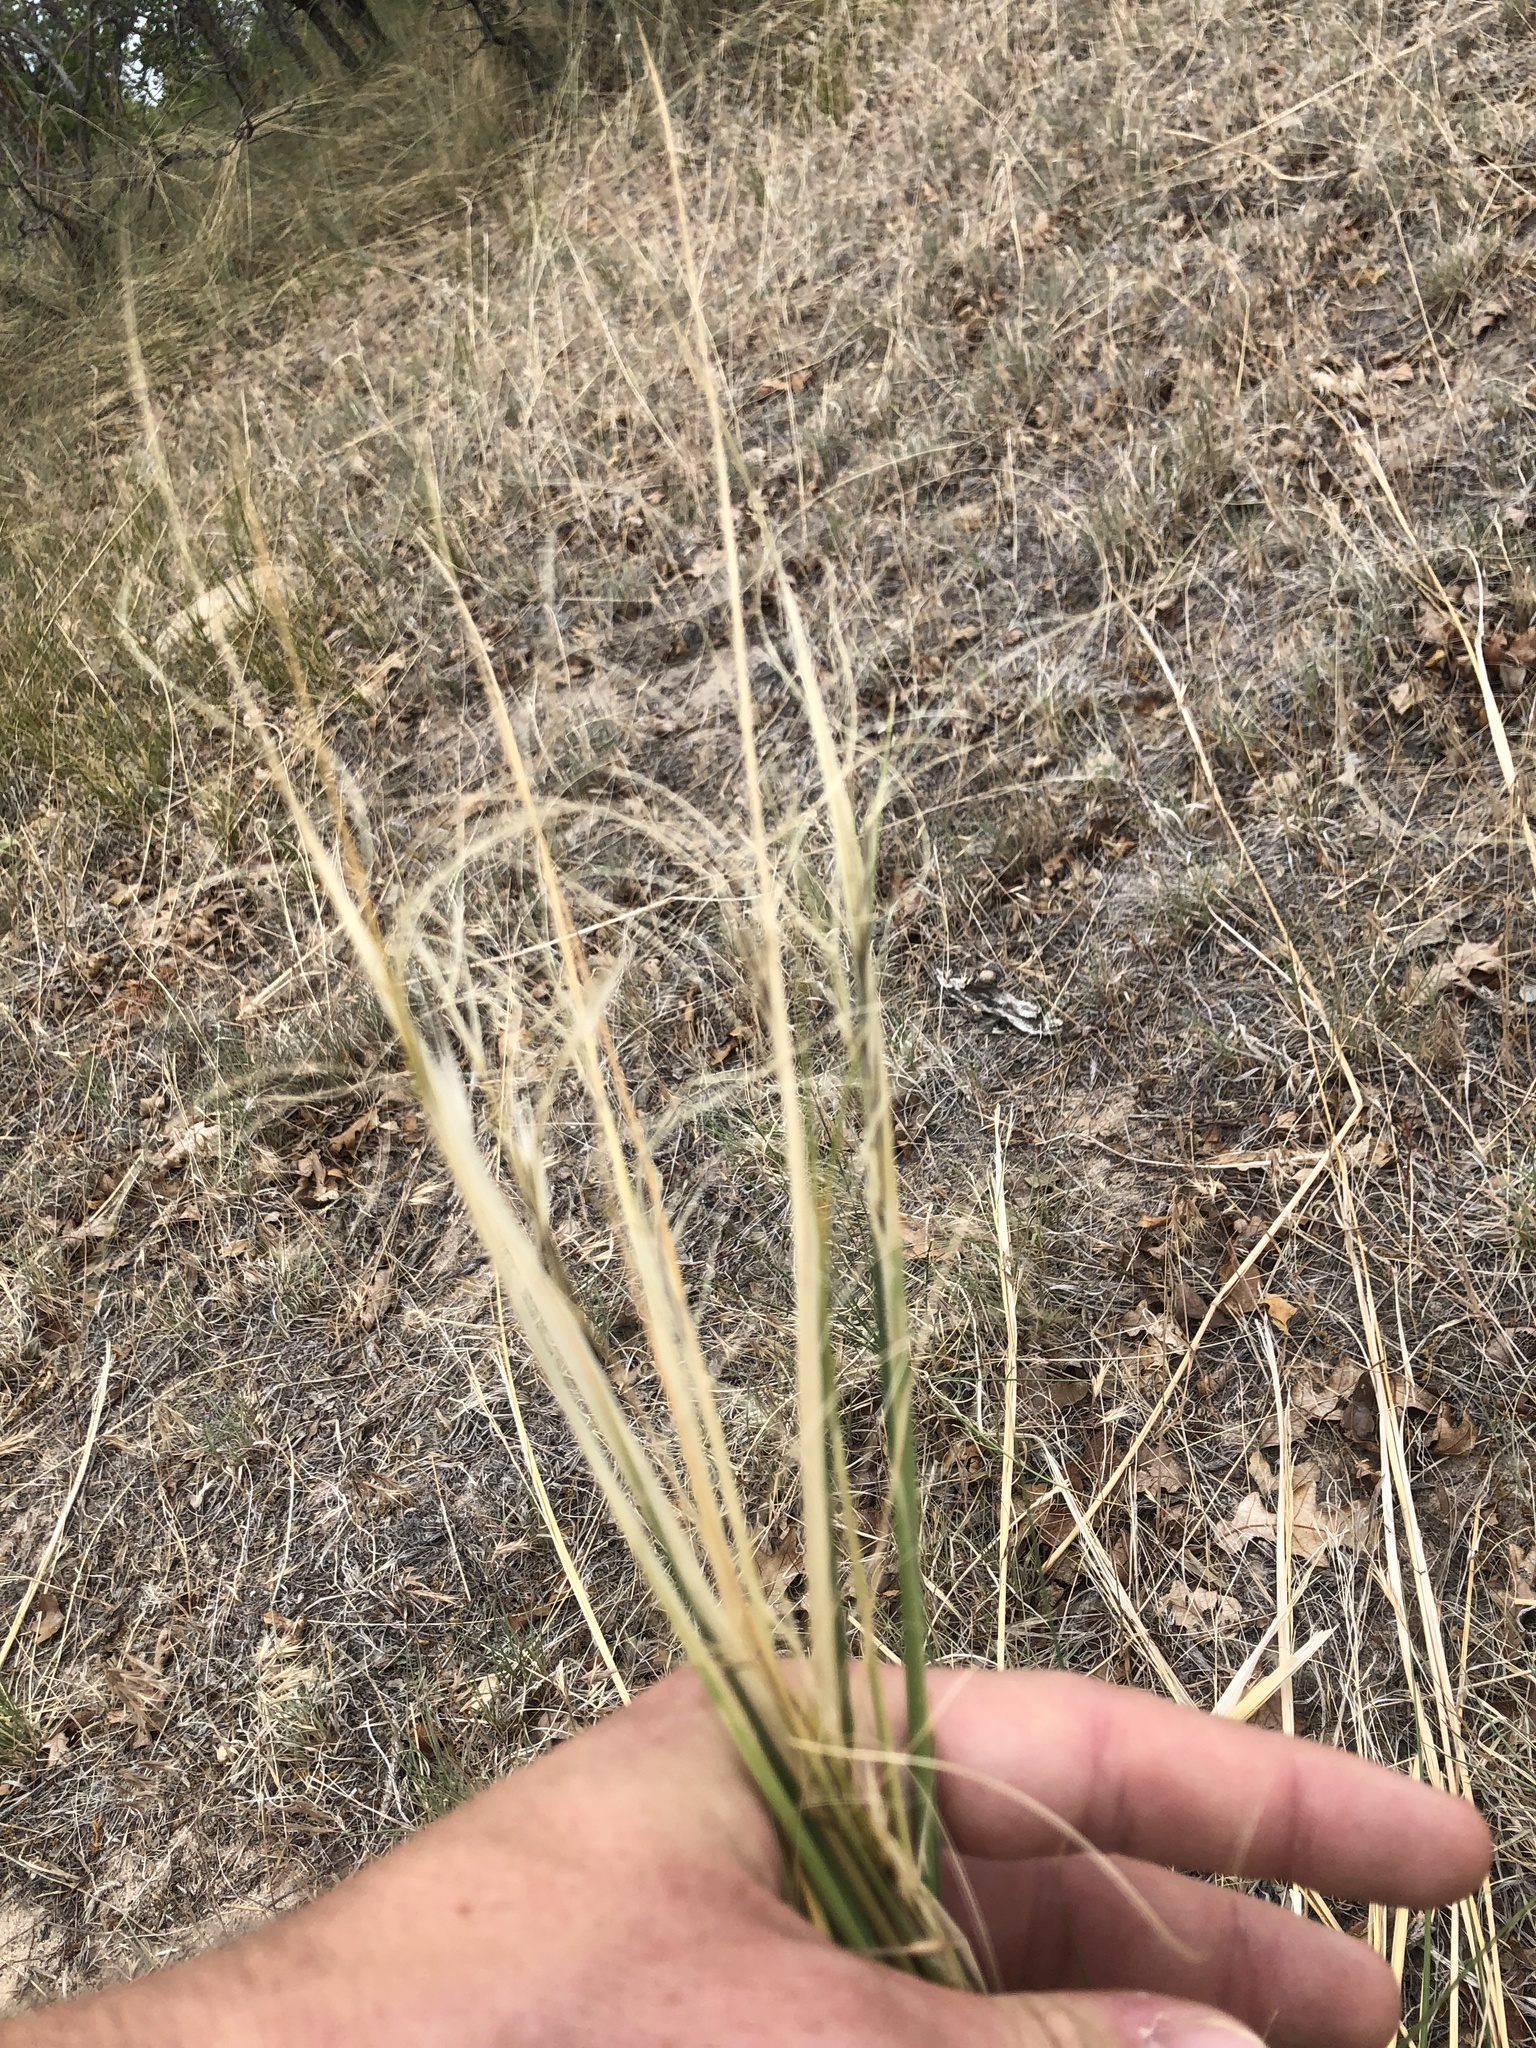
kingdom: Plantae
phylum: Tracheophyta
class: Liliopsida
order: Poales
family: Poaceae
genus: Hesperostipa
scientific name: Hesperostipa comata
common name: Needle-and-thread grass
